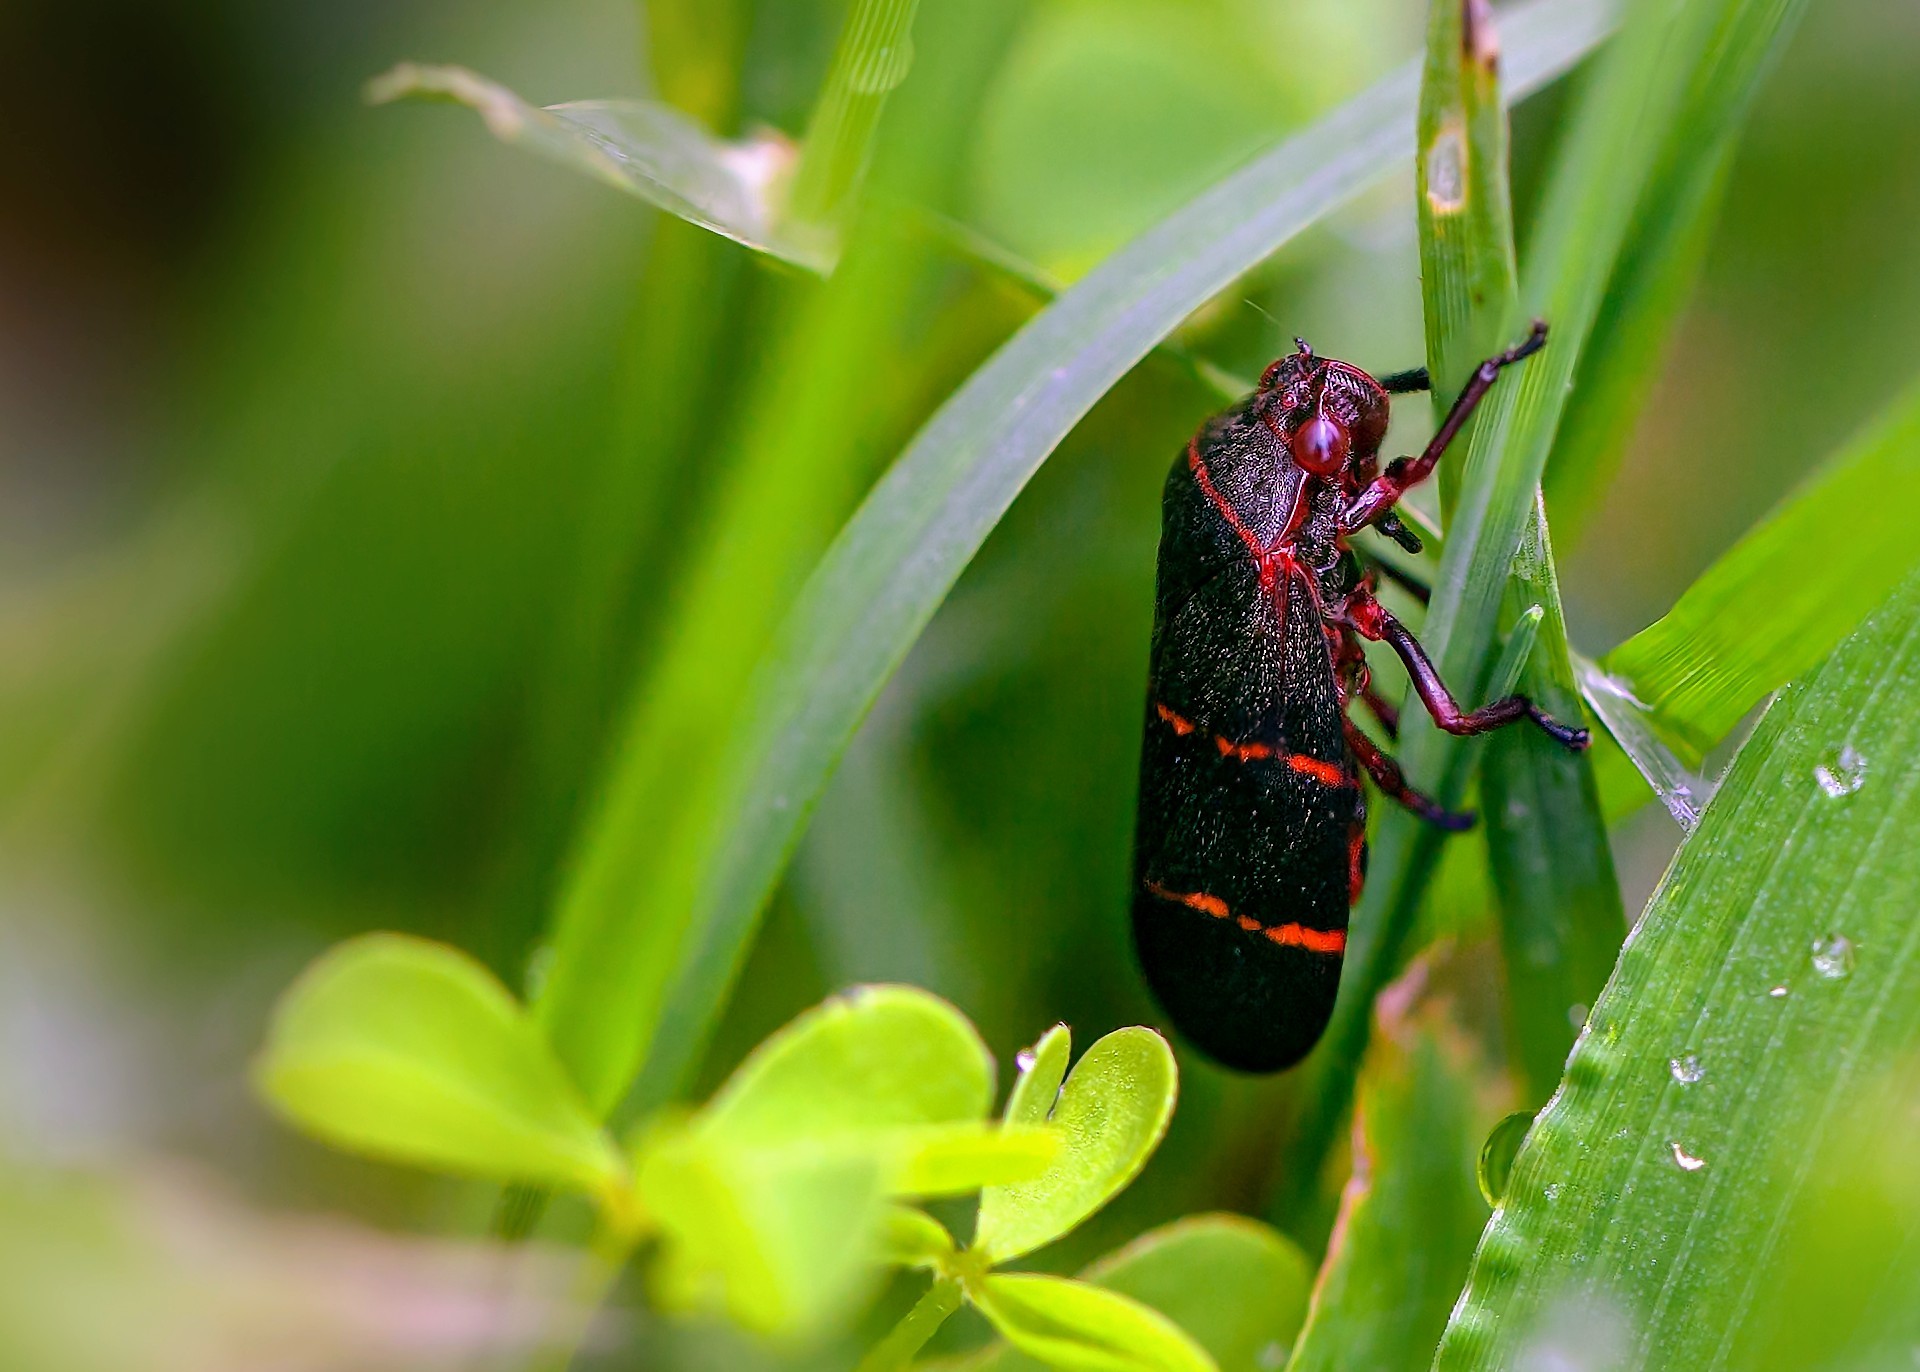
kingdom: Animalia
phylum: Arthropoda
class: Insecta
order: Hemiptera
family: Cercopidae
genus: Prosapia
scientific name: Prosapia bicincta
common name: Twolined spittlebug
